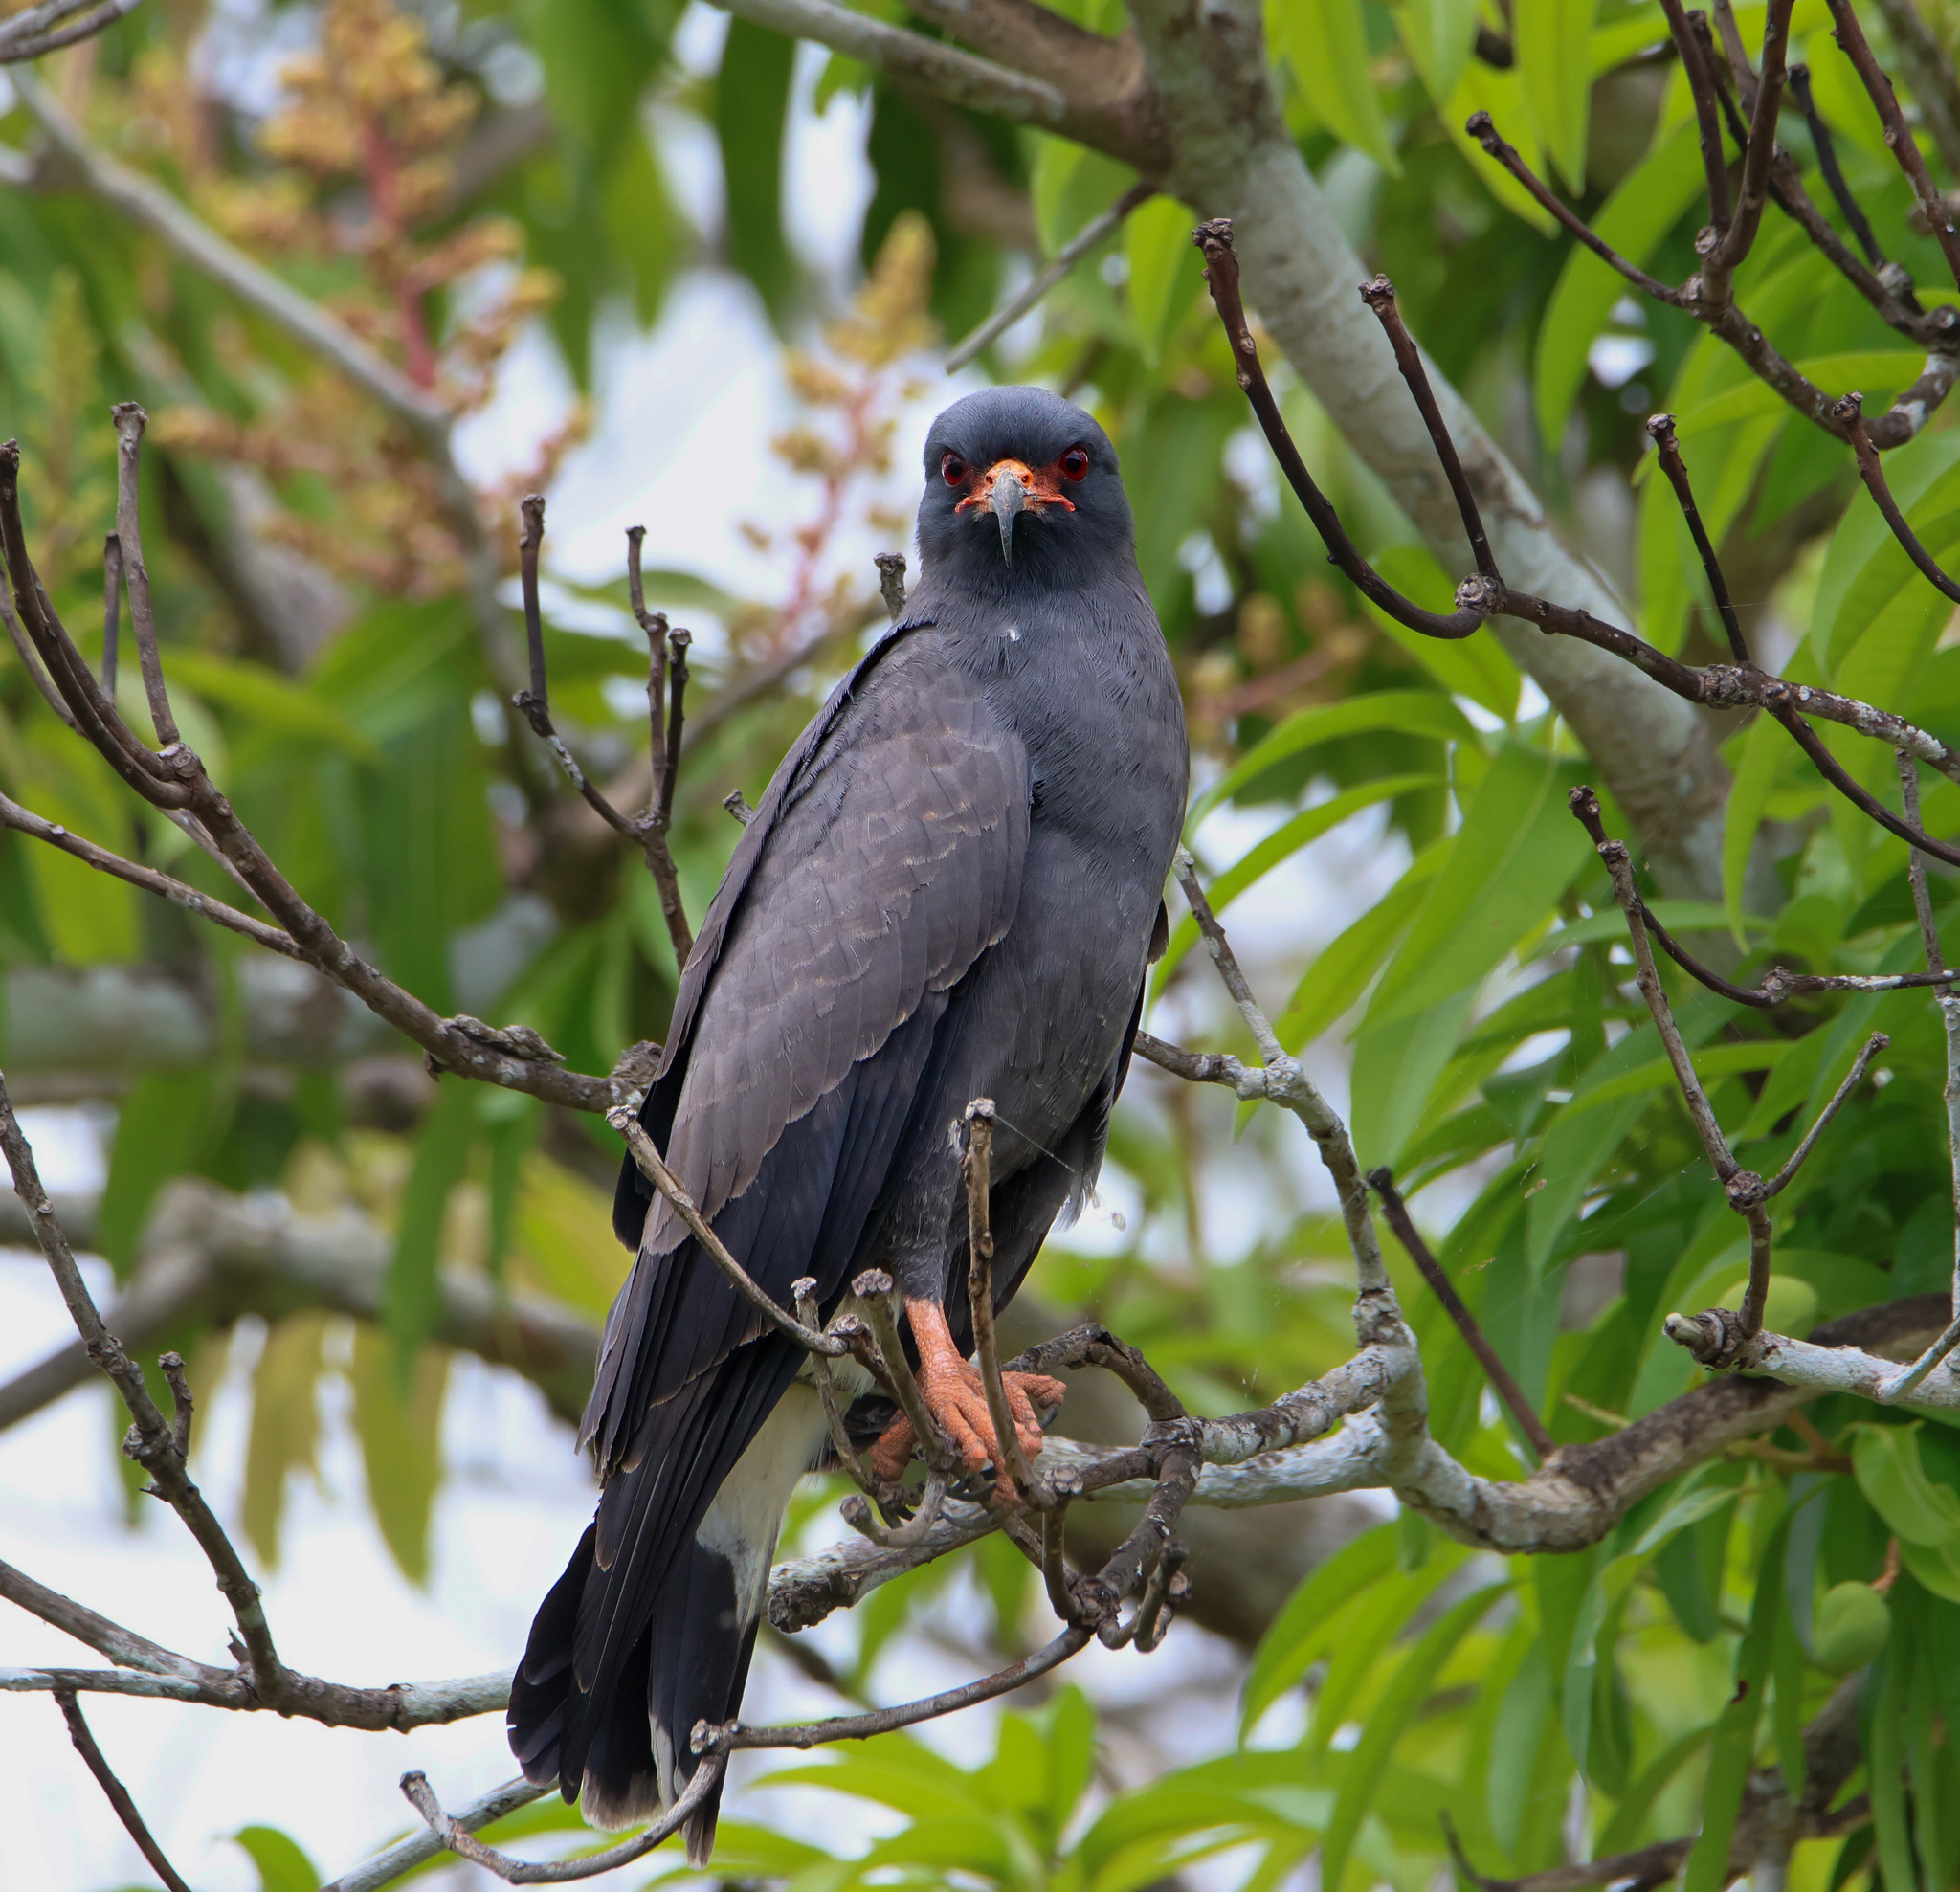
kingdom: Animalia
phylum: Chordata
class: Aves
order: Accipitriformes
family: Accipitridae
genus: Rostrhamus
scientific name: Rostrhamus sociabilis
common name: Snail kite
